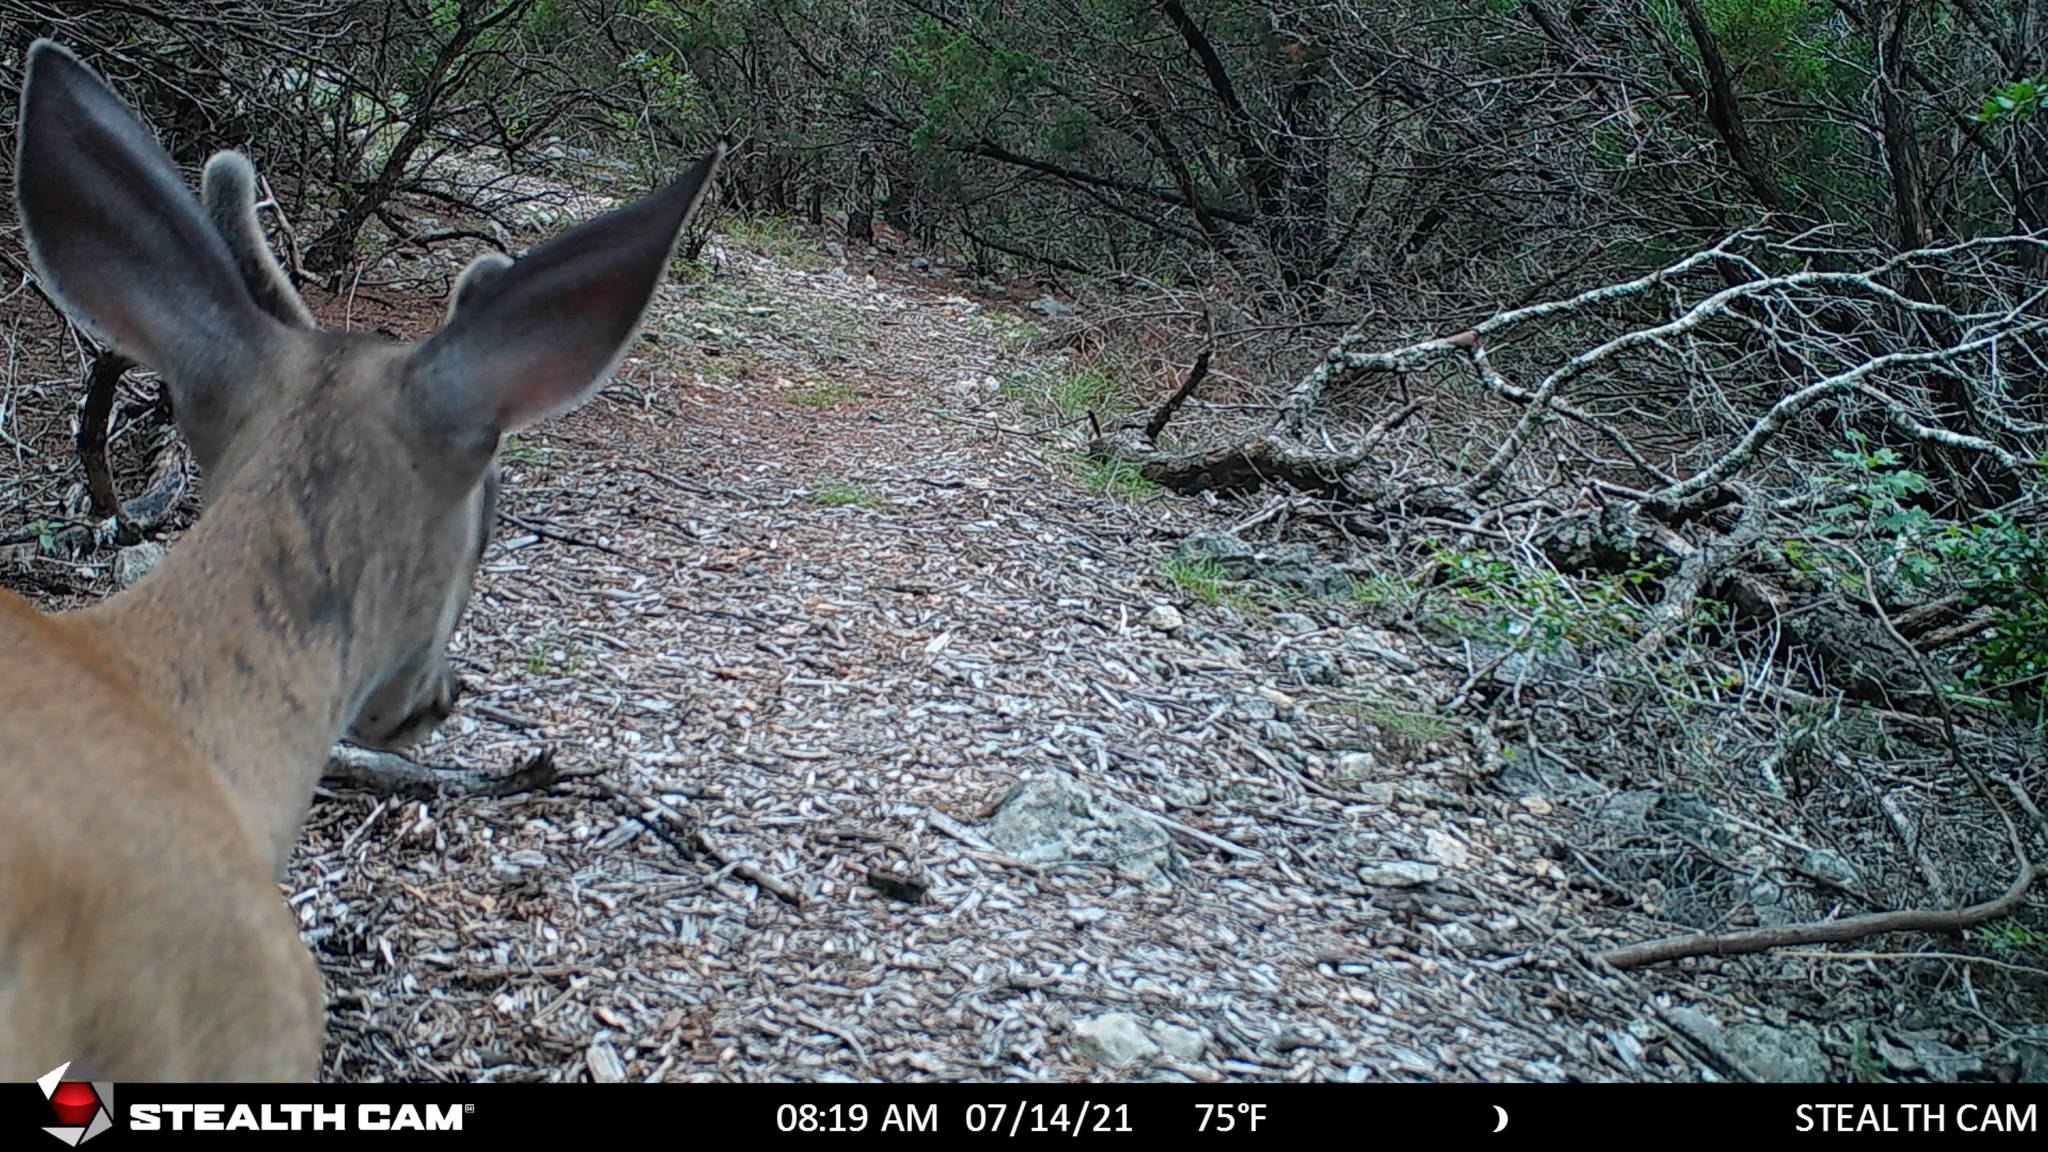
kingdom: Animalia
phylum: Chordata
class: Mammalia
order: Artiodactyla
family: Cervidae
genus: Odocoileus
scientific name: Odocoileus virginianus
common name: White-tailed deer
